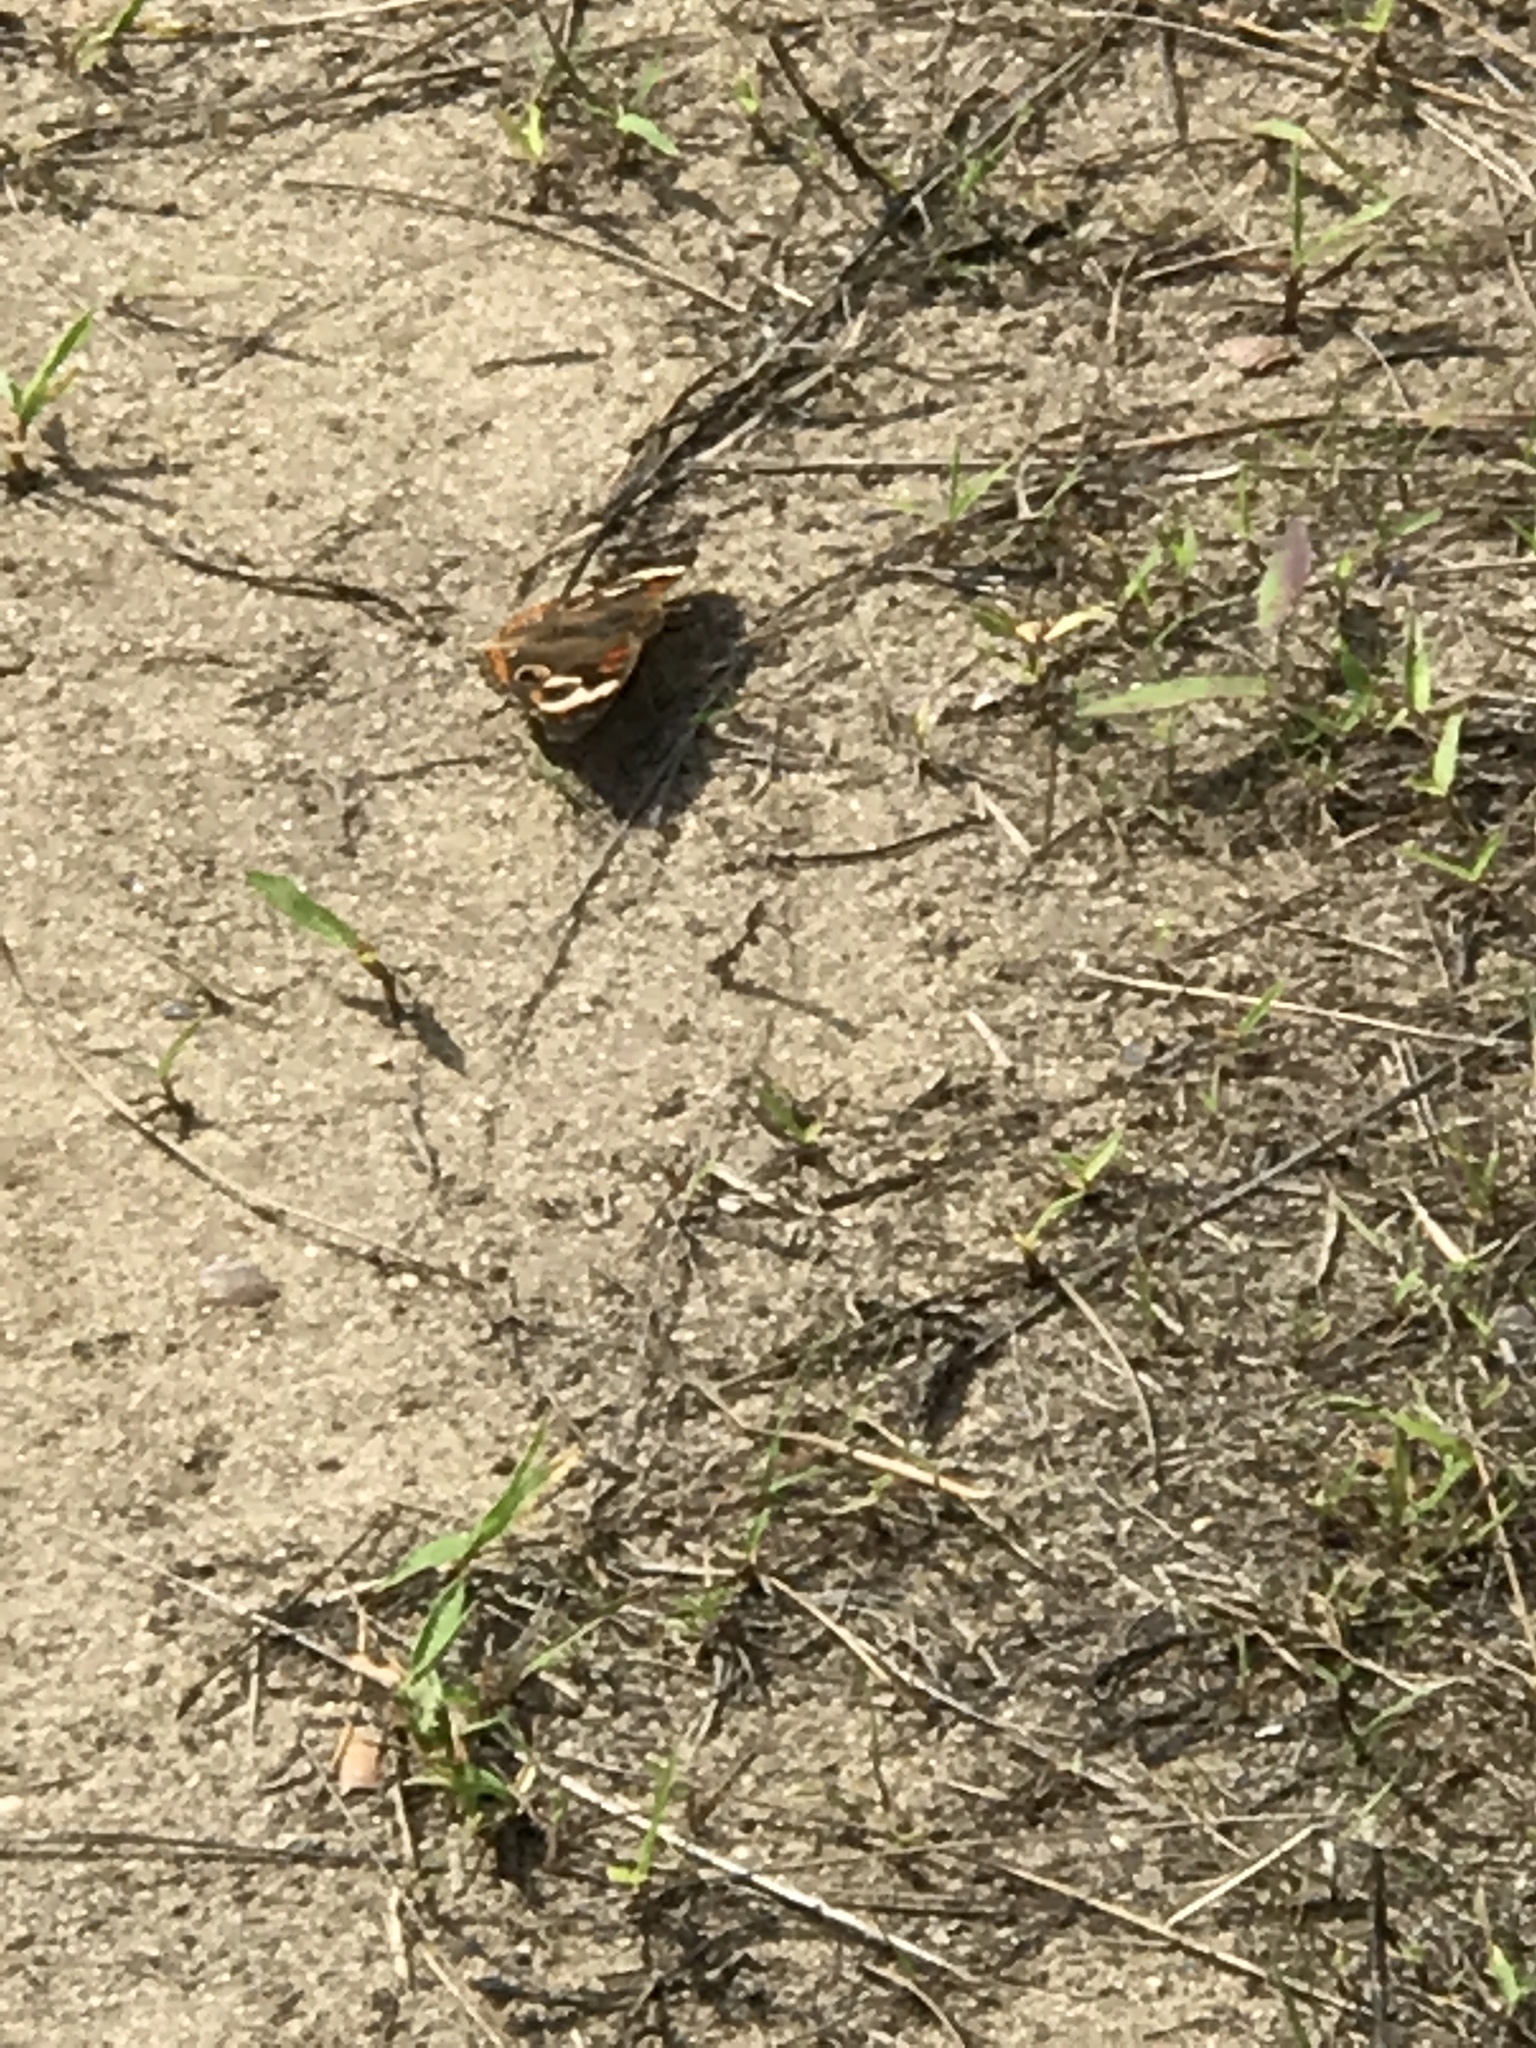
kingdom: Animalia
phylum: Arthropoda
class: Insecta
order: Lepidoptera
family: Nymphalidae
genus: Junonia
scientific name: Junonia coenia
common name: Common buckeye
